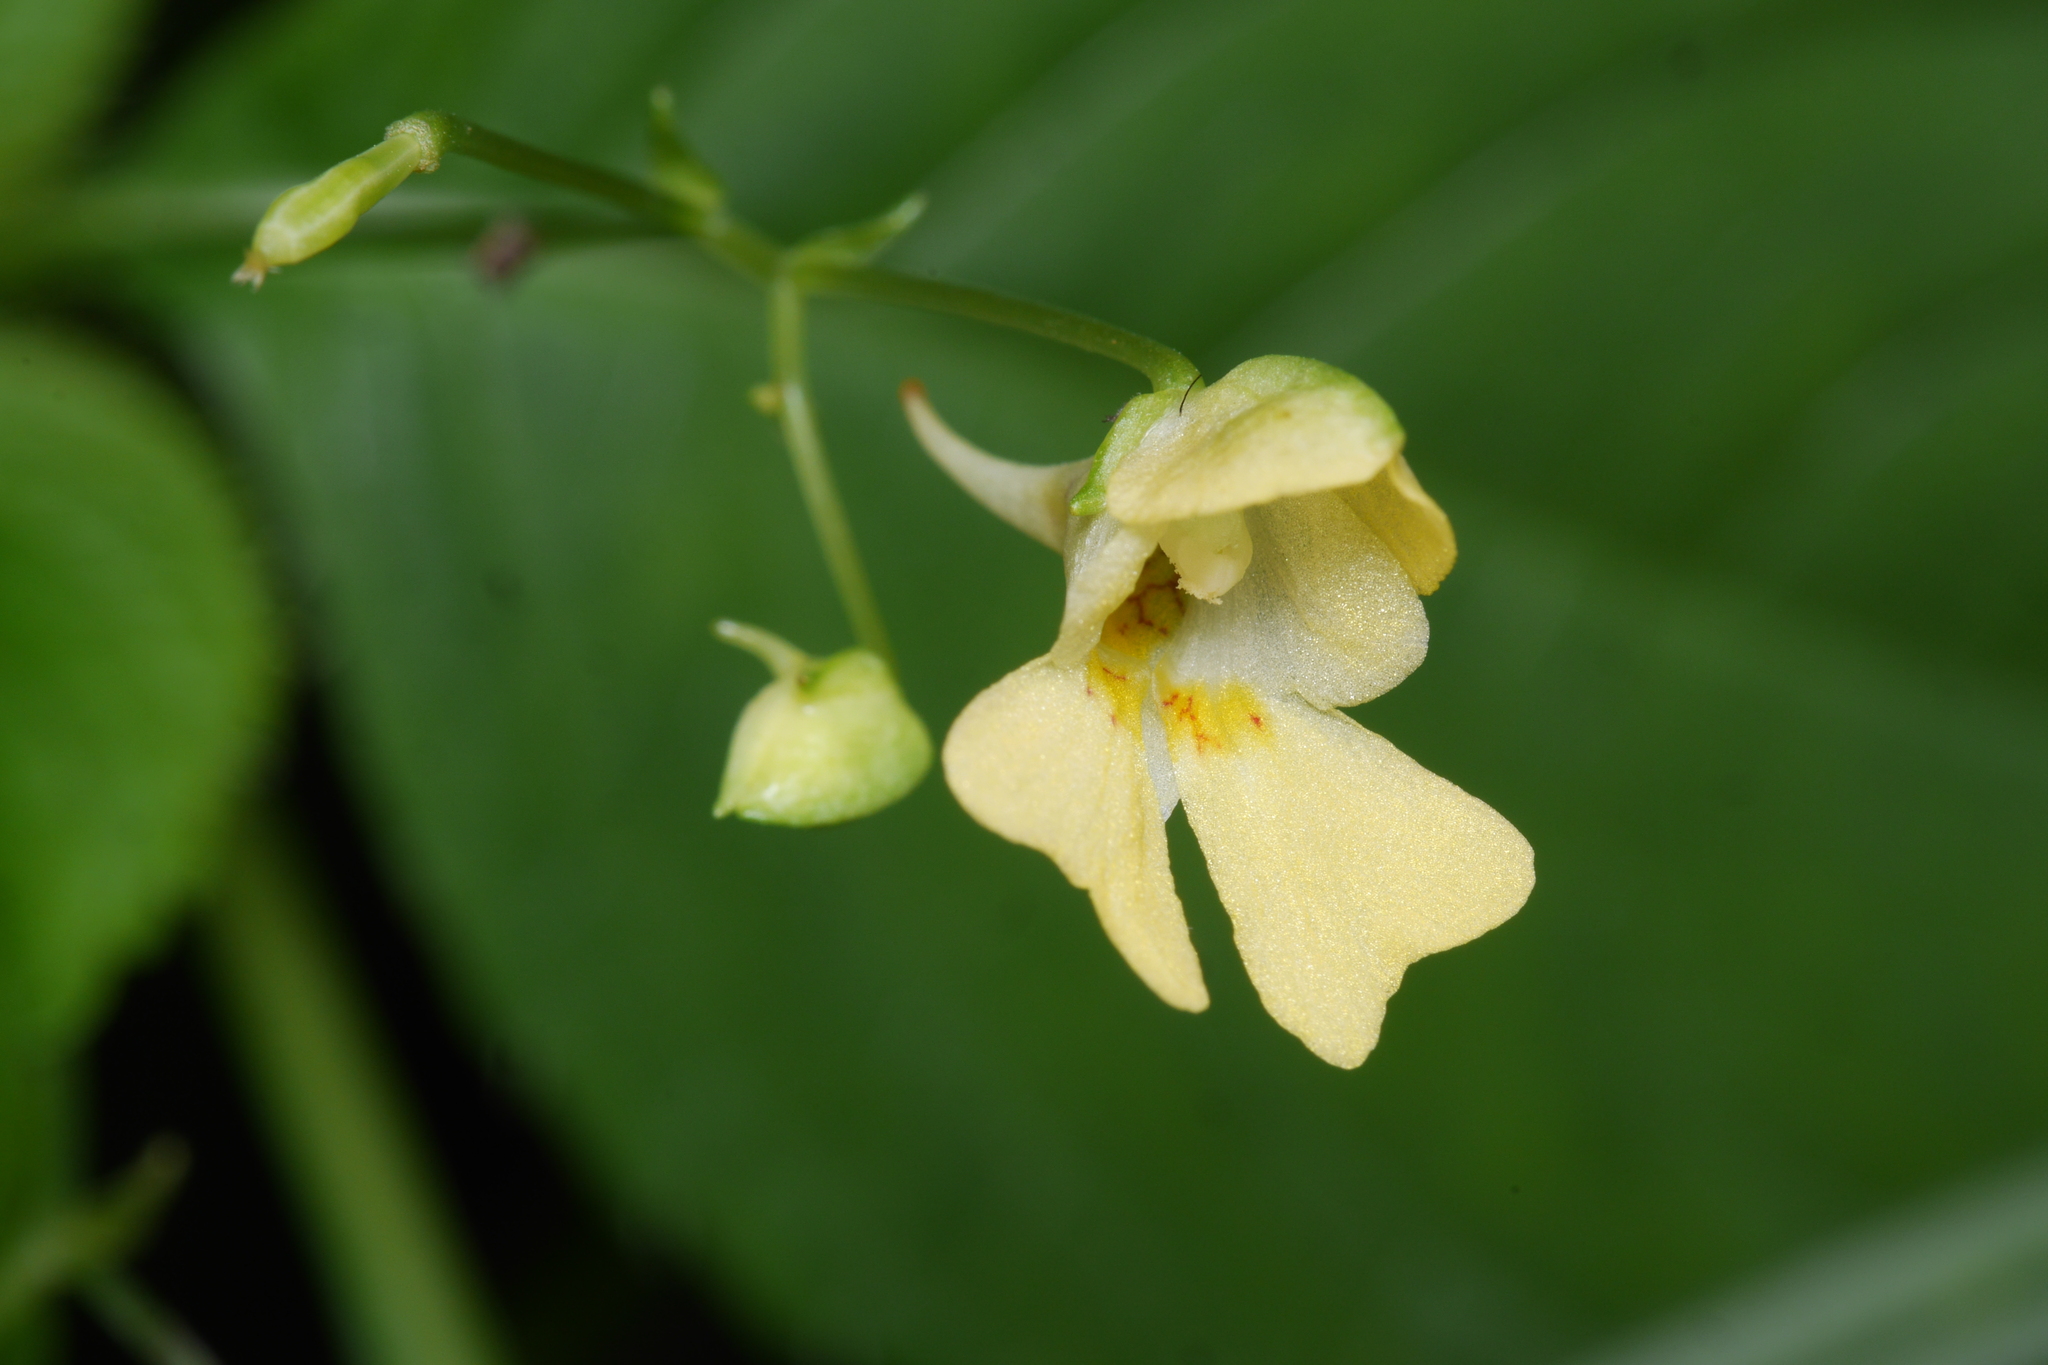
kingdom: Plantae
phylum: Tracheophyta
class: Magnoliopsida
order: Ericales
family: Balsaminaceae
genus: Impatiens
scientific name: Impatiens parviflora
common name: Small balsam
